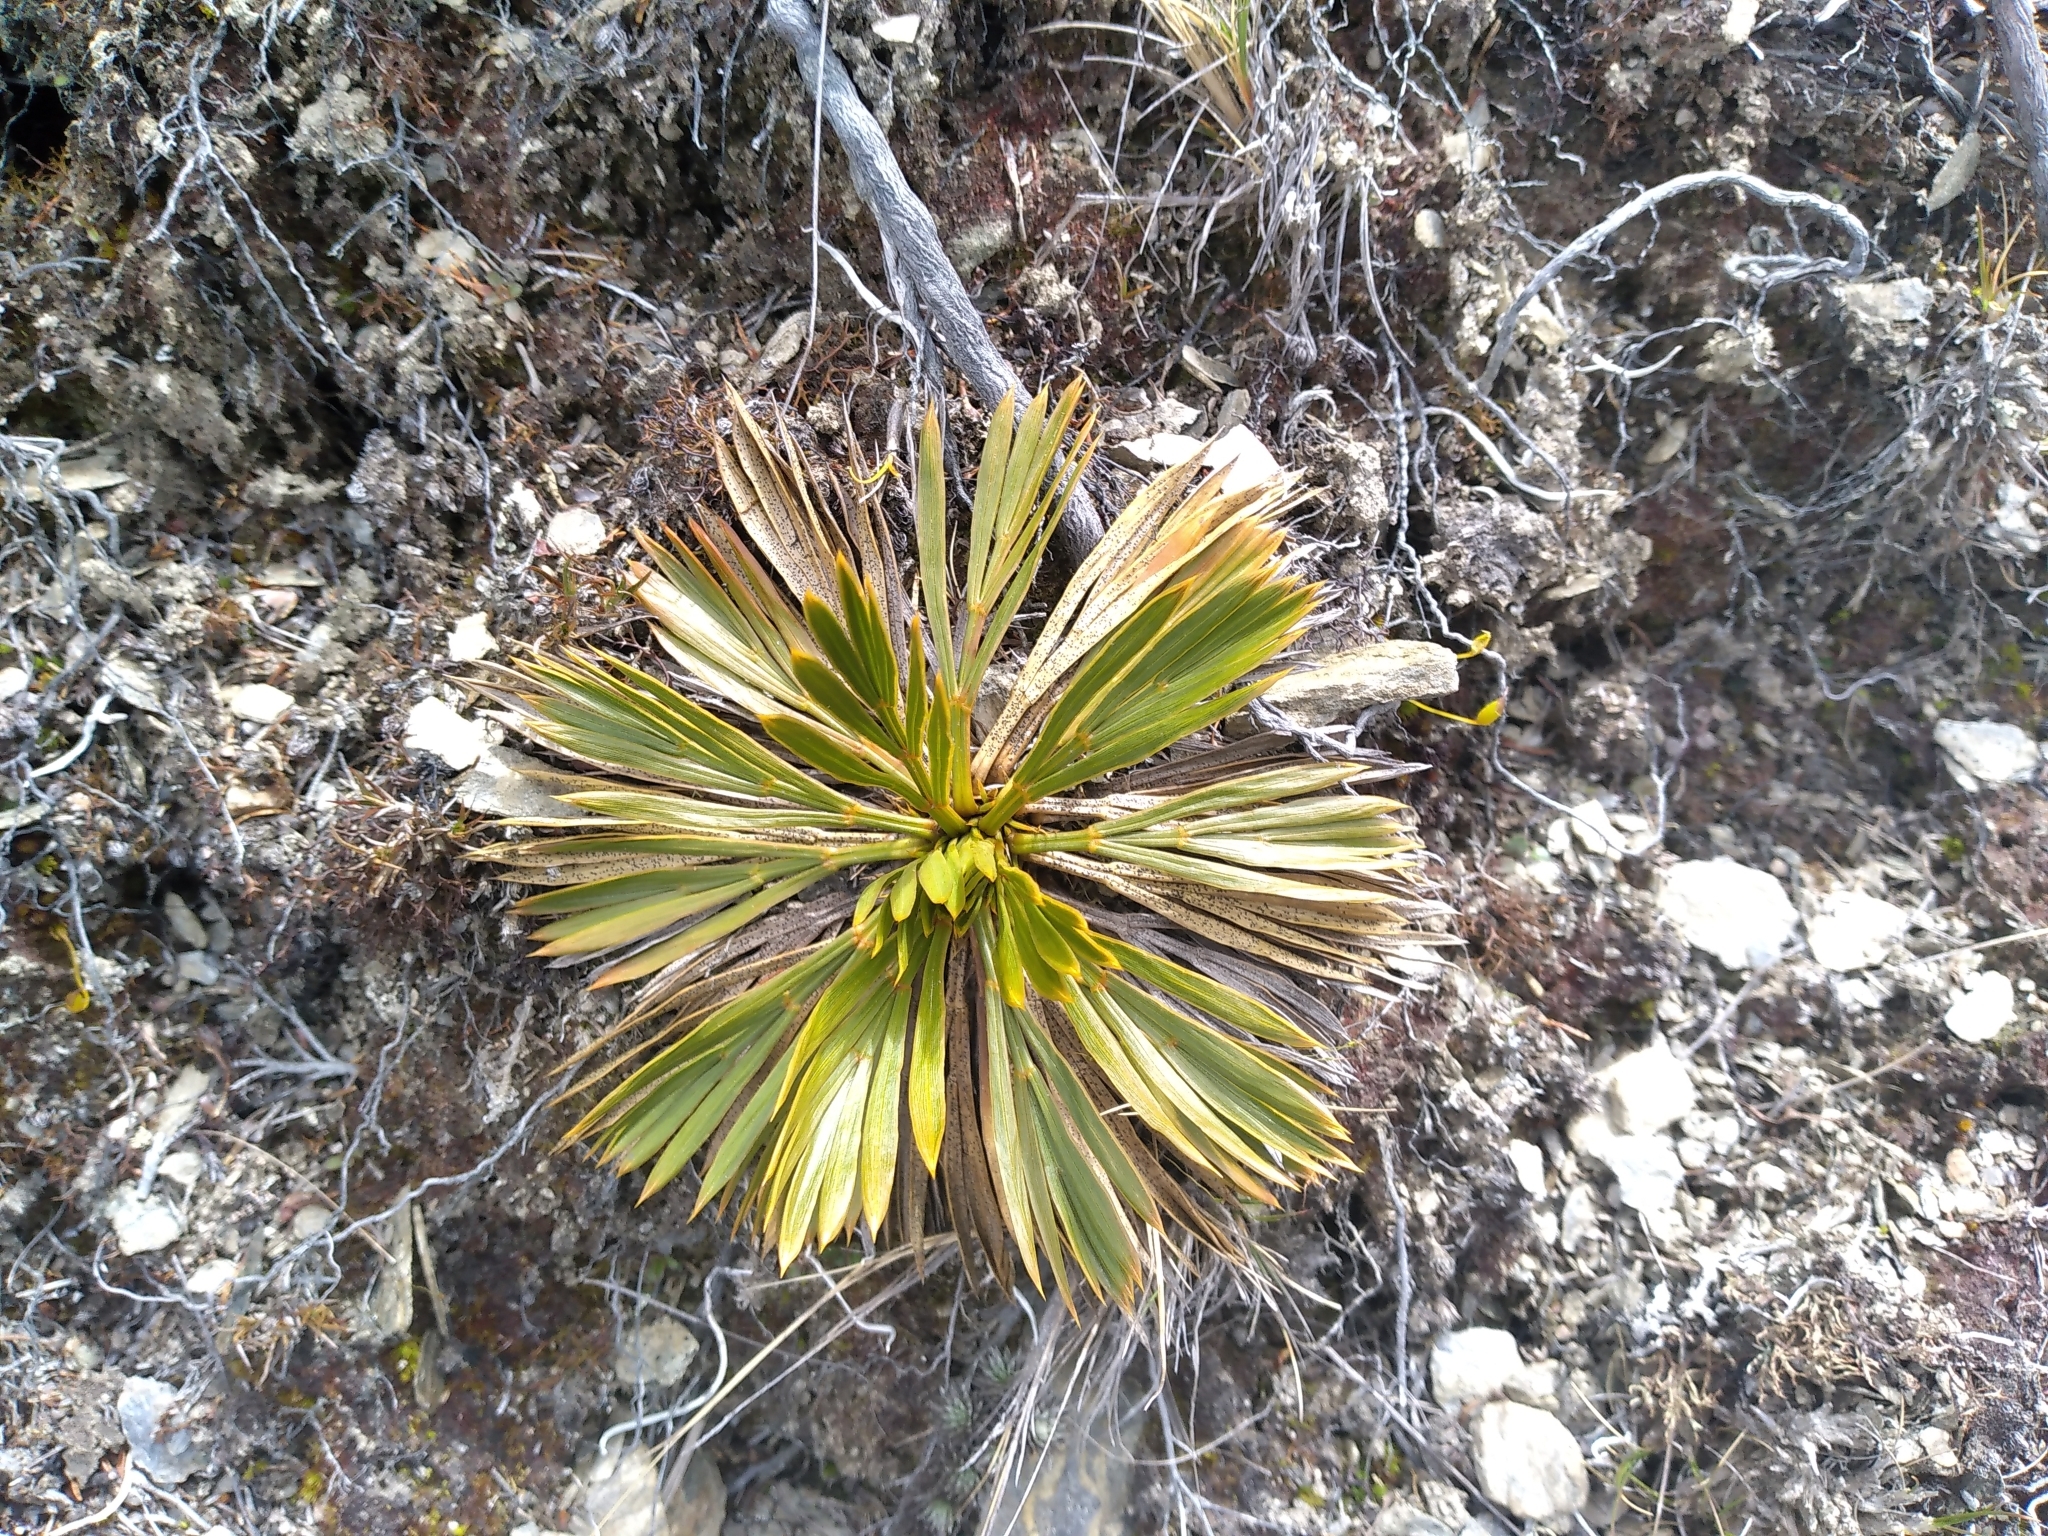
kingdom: Plantae
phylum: Tracheophyta
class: Magnoliopsida
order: Apiales
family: Apiaceae
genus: Aciphylla
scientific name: Aciphylla montana
